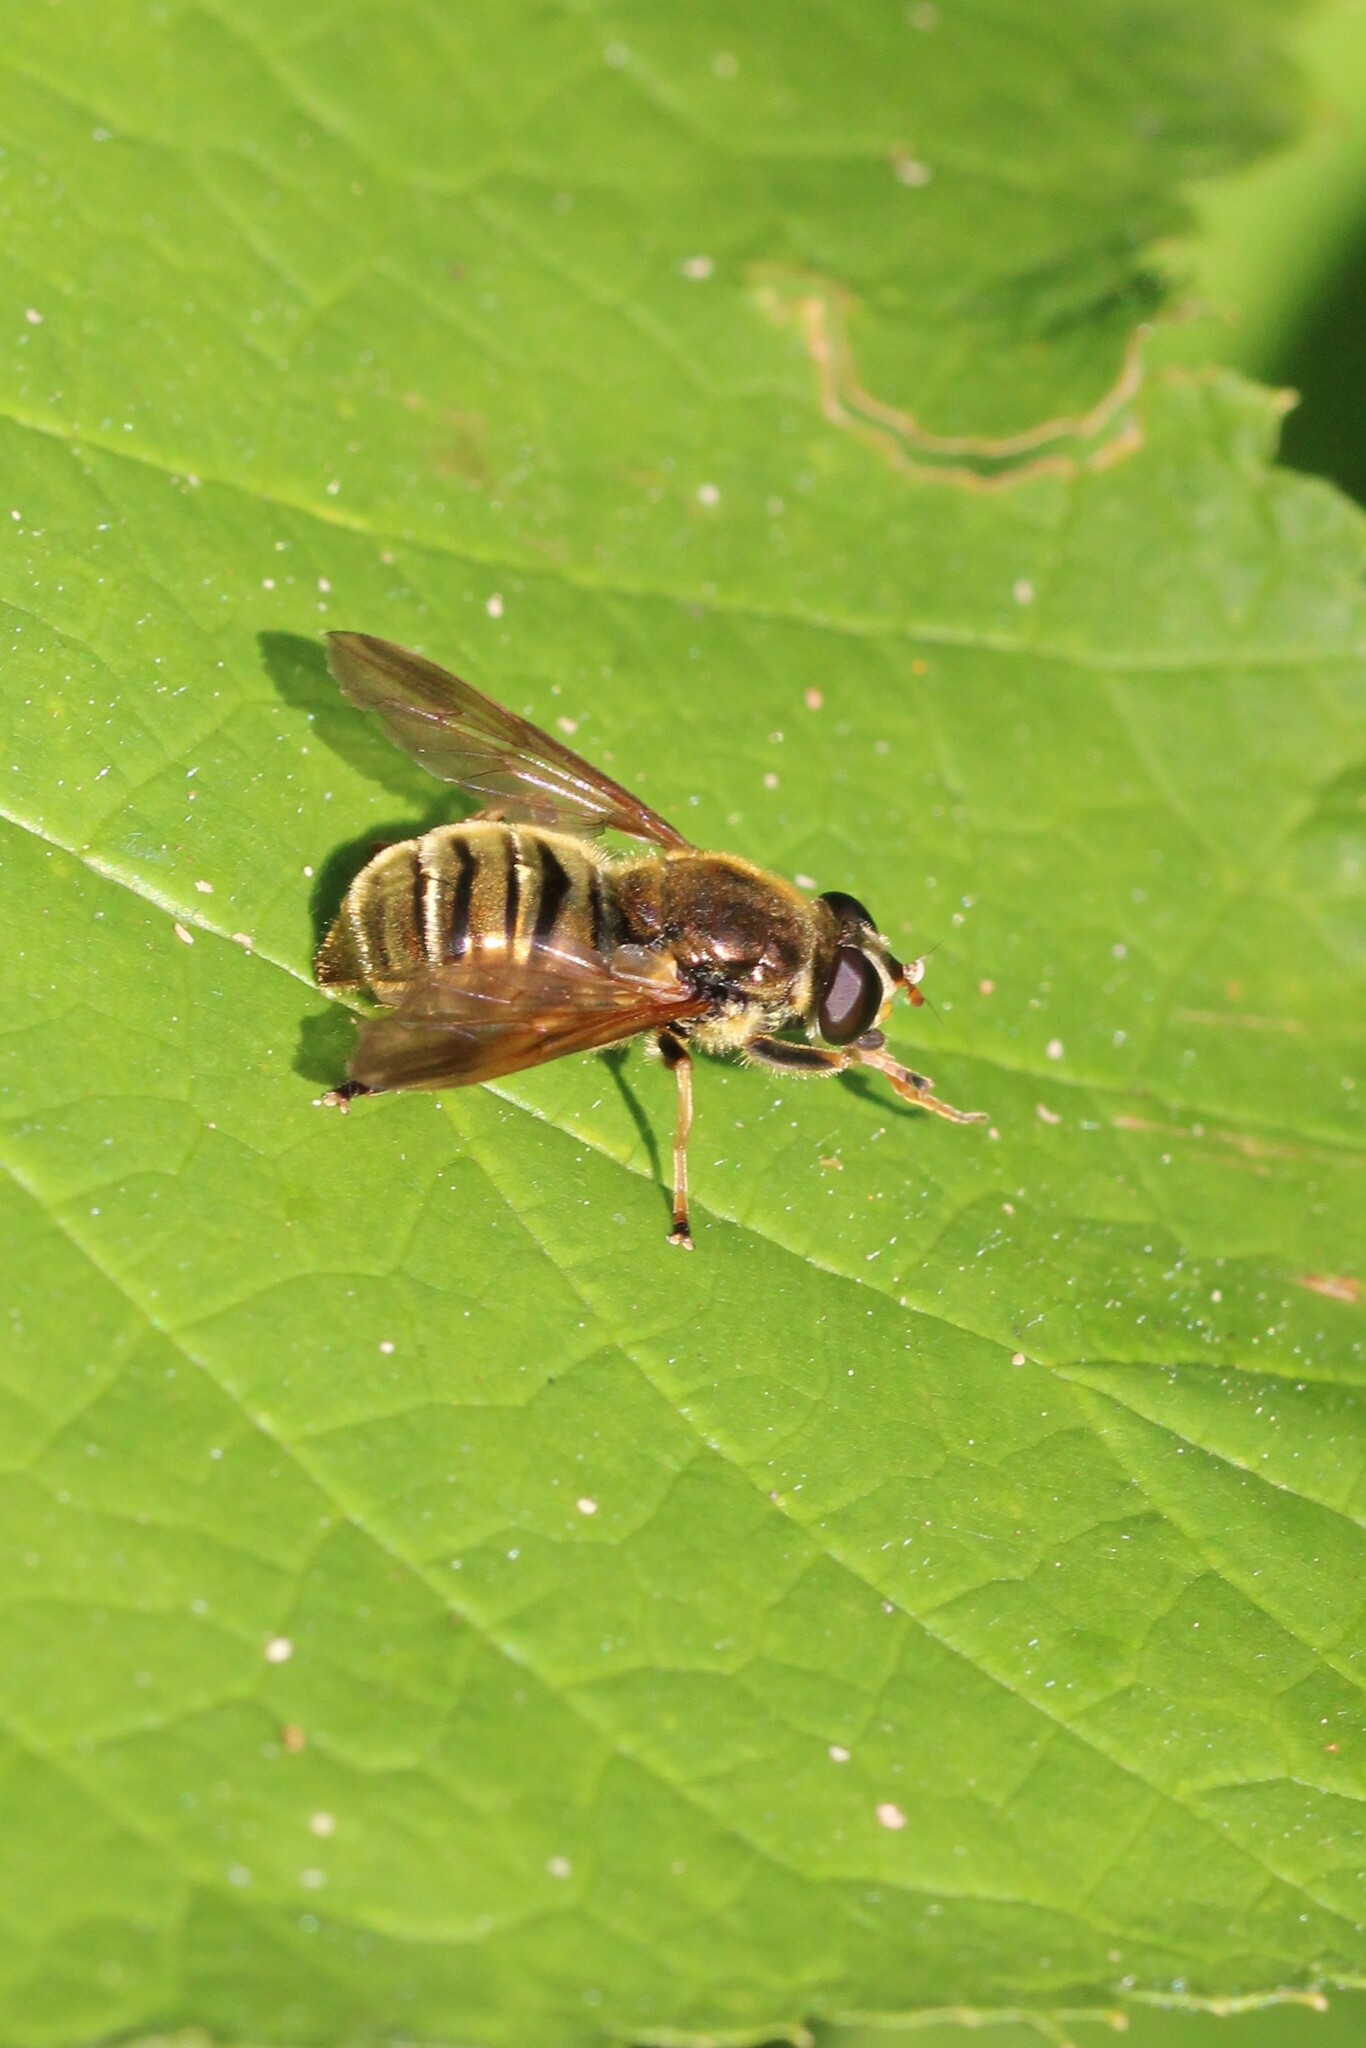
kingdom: Animalia
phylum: Arthropoda
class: Insecta
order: Diptera
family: Syrphidae
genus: Hadromyia
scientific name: Hadromyia crawfordi
